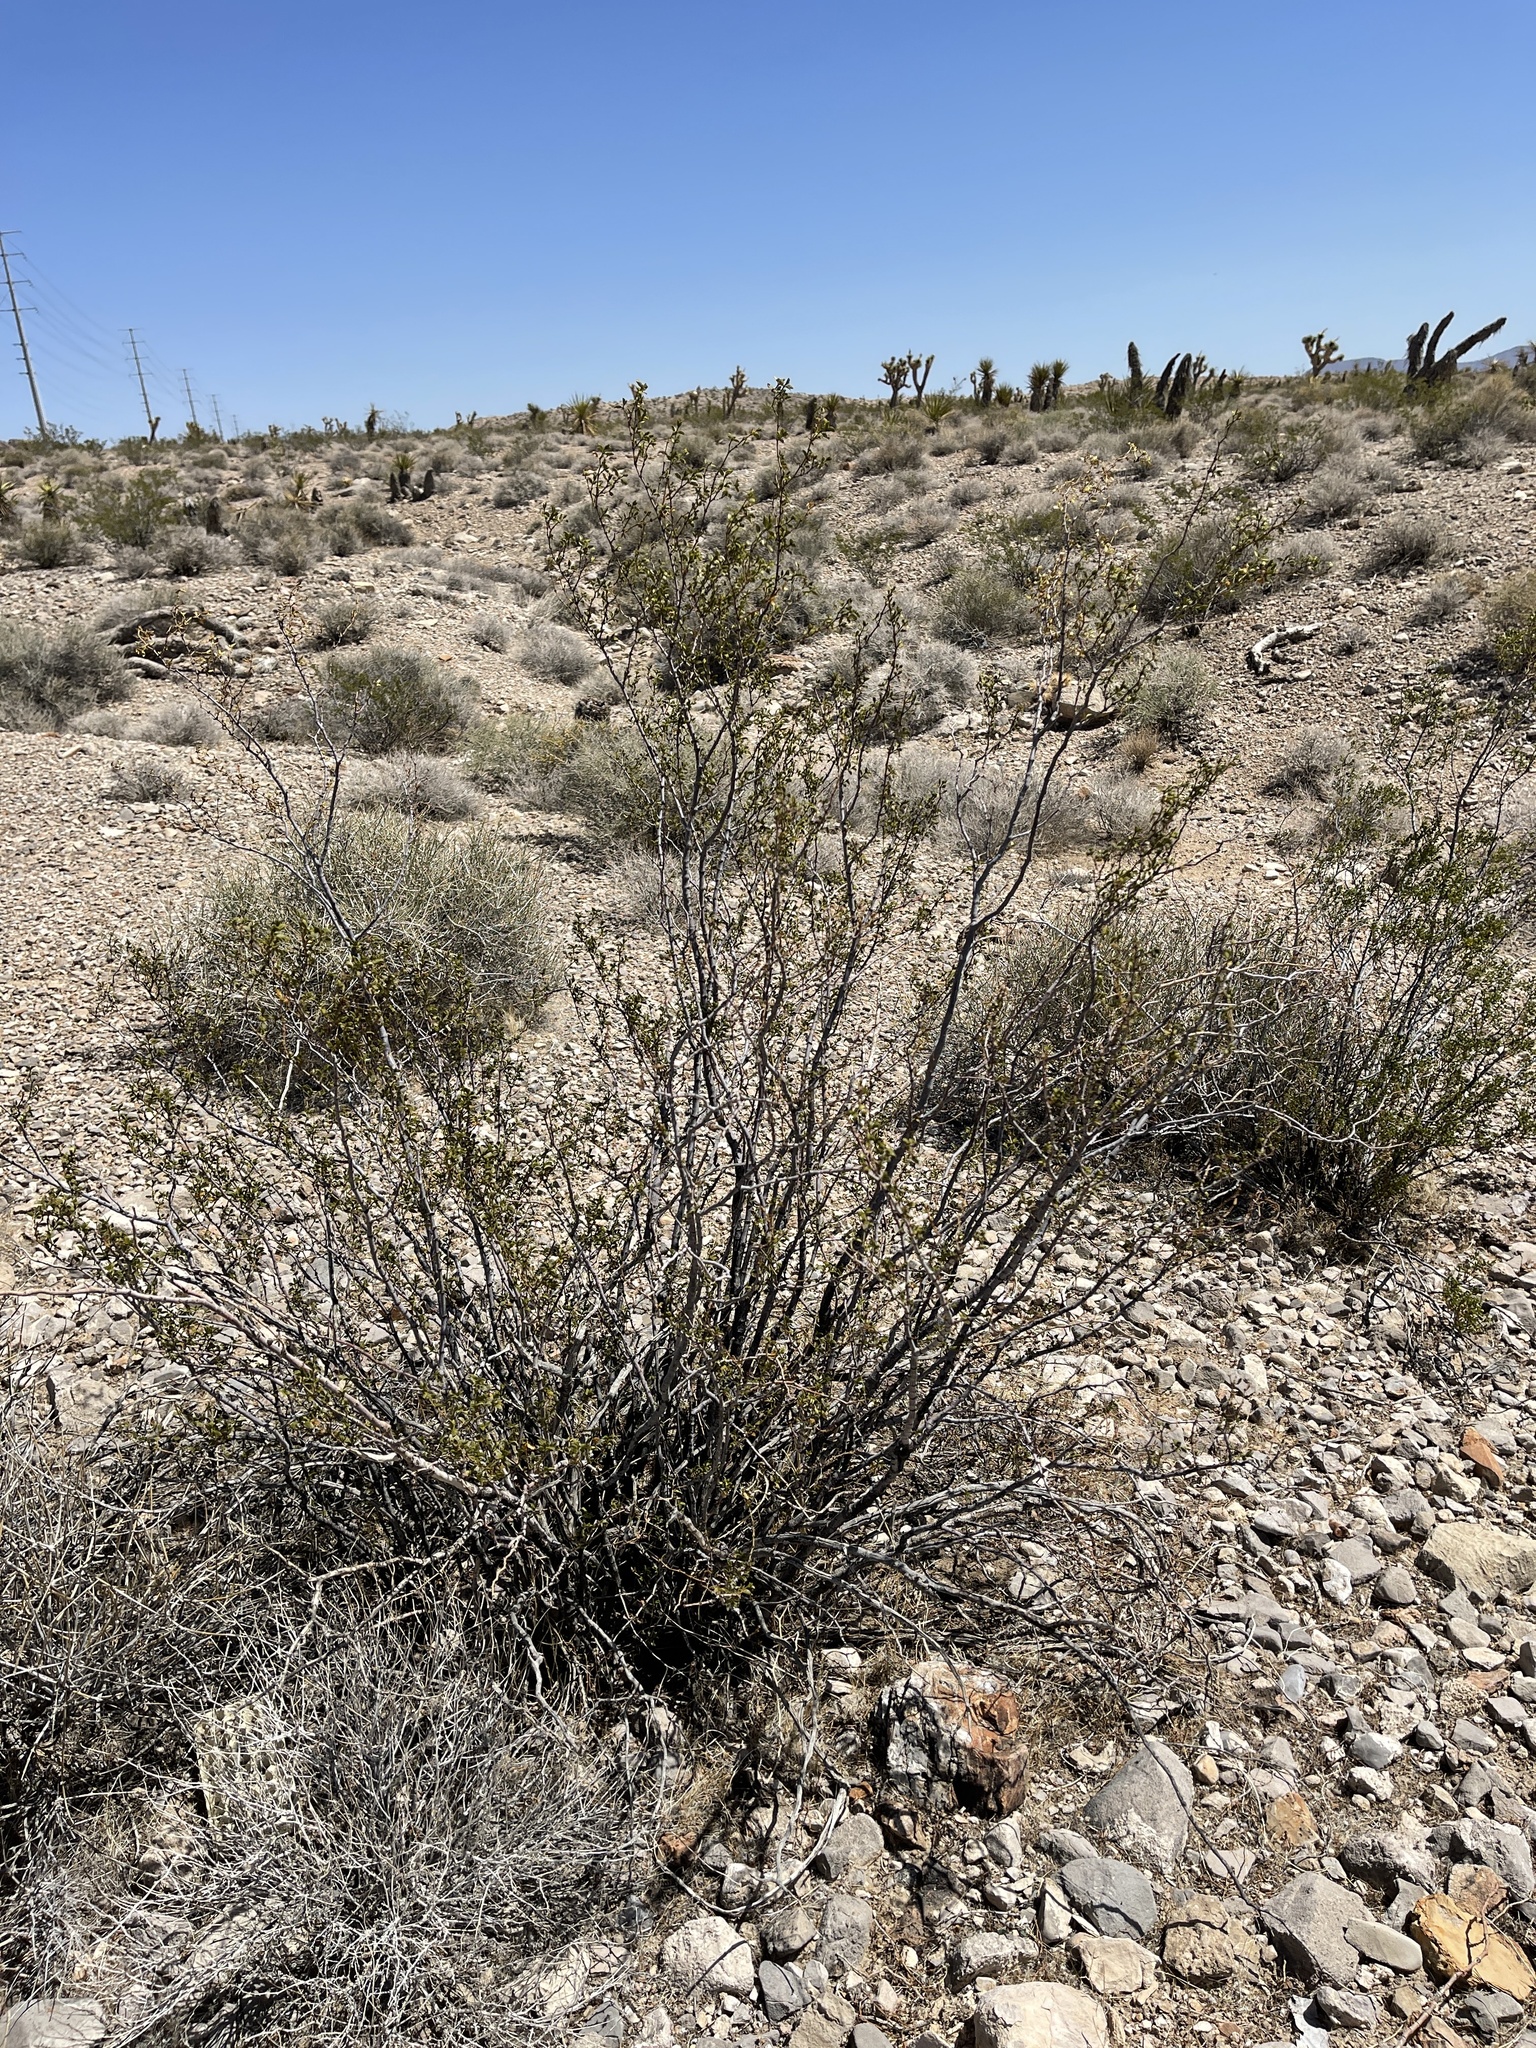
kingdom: Plantae
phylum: Tracheophyta
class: Magnoliopsida
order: Zygophyllales
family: Zygophyllaceae
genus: Larrea
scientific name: Larrea tridentata
